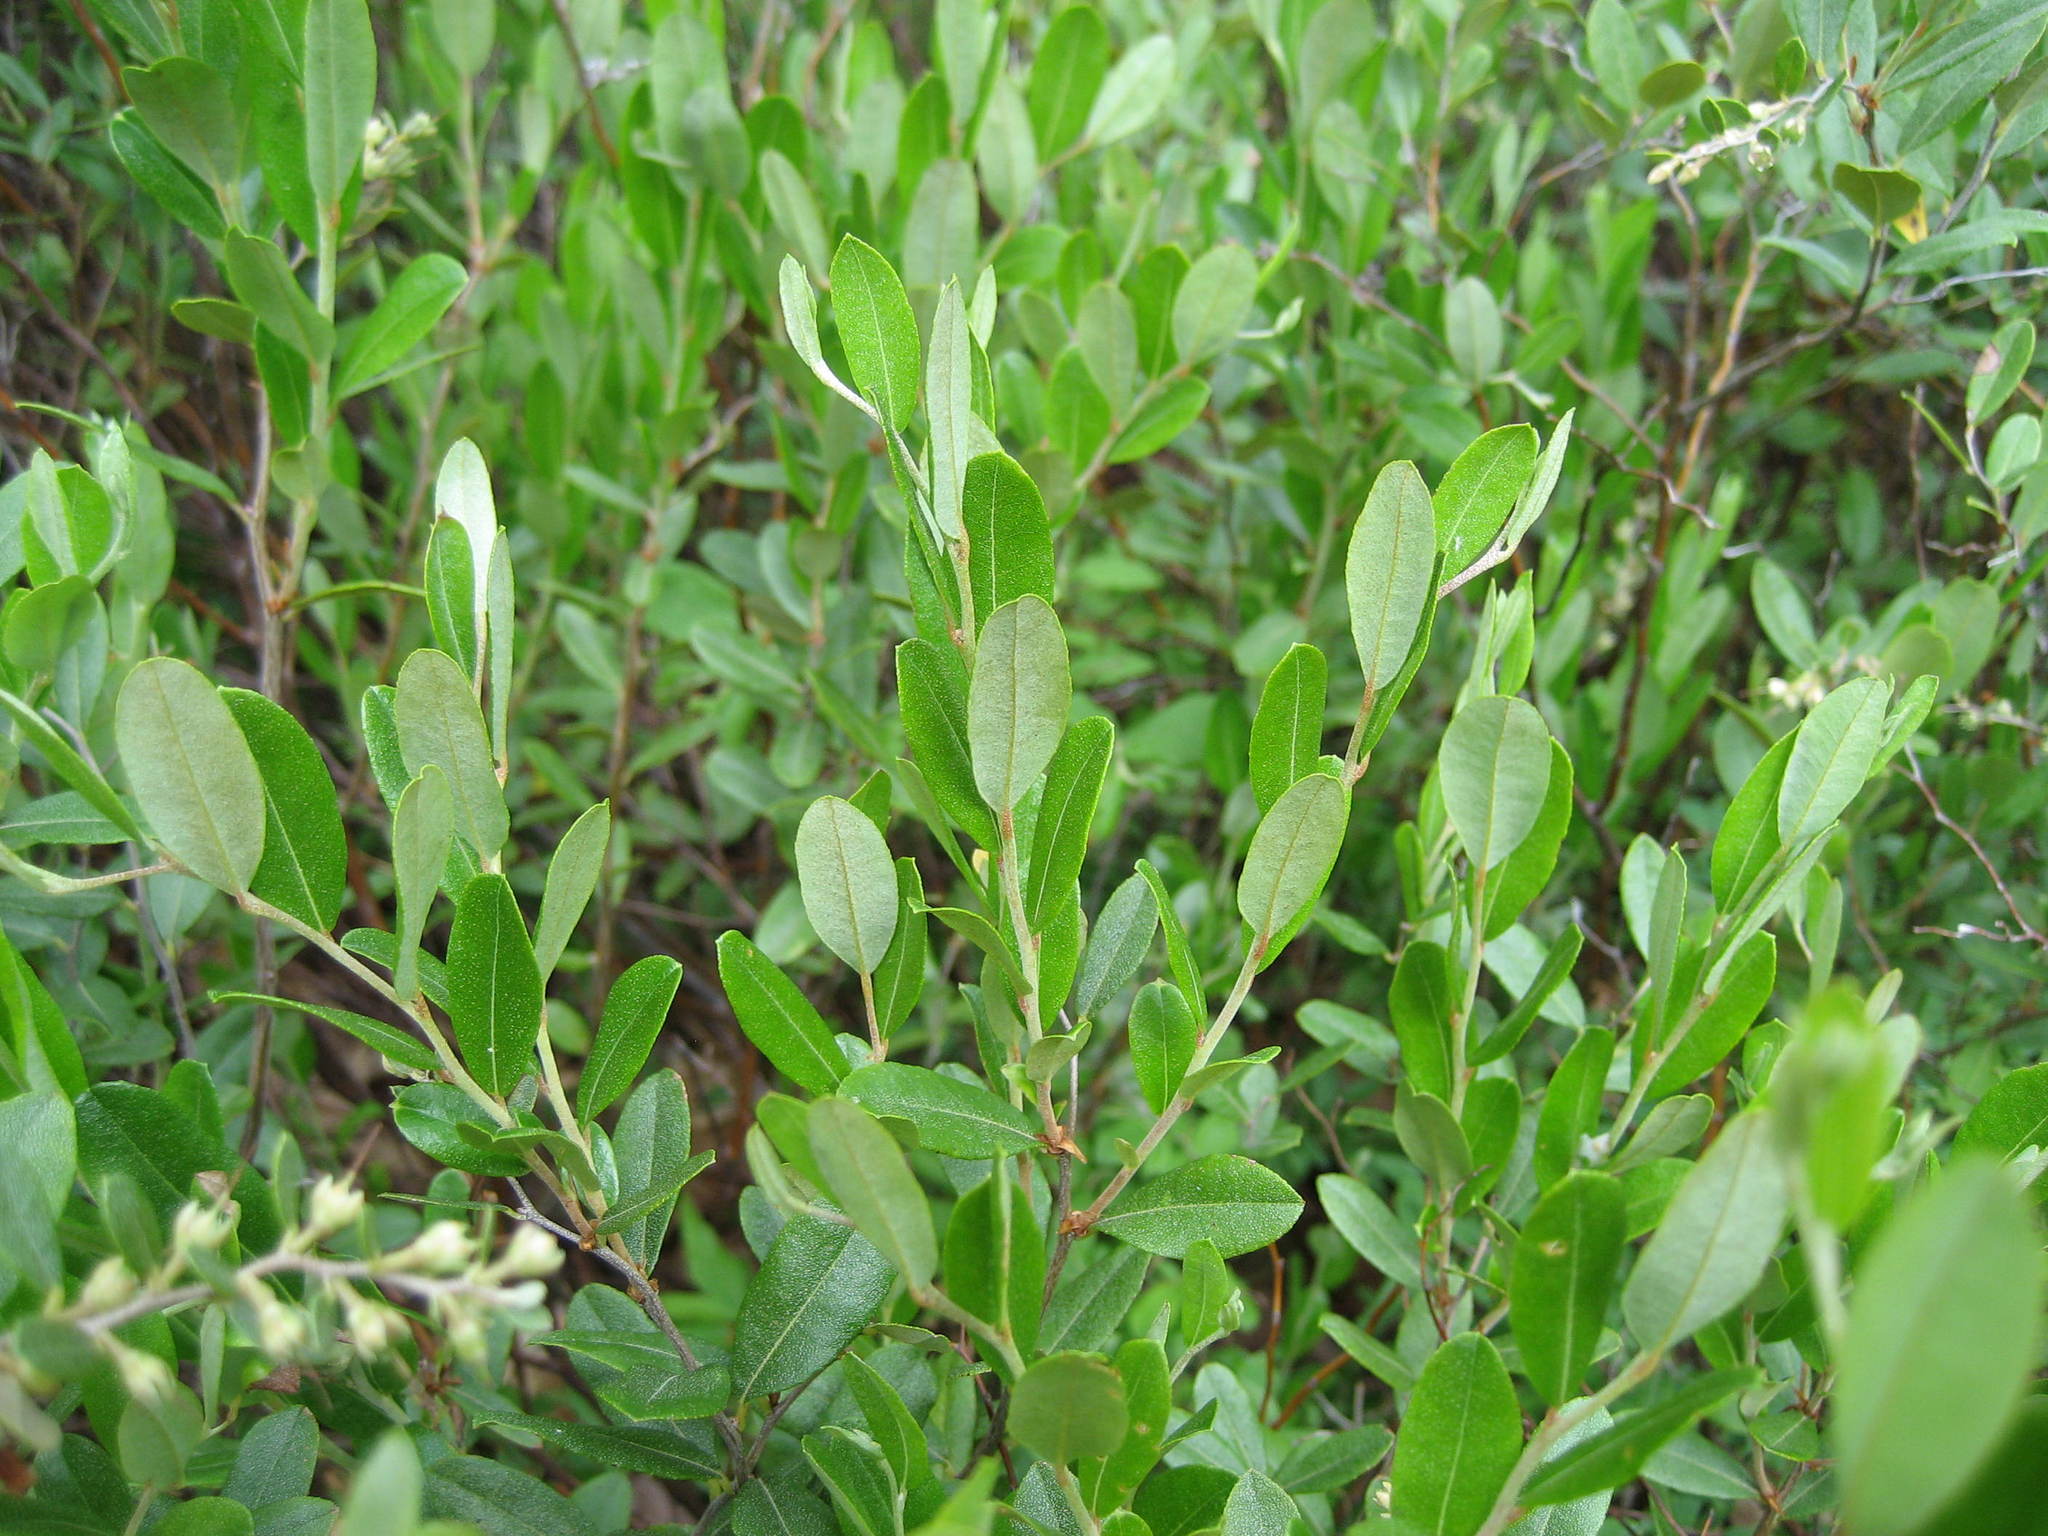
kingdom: Plantae
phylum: Tracheophyta
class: Magnoliopsida
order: Ericales
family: Ericaceae
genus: Chamaedaphne
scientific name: Chamaedaphne calyculata
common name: Leatherleaf
